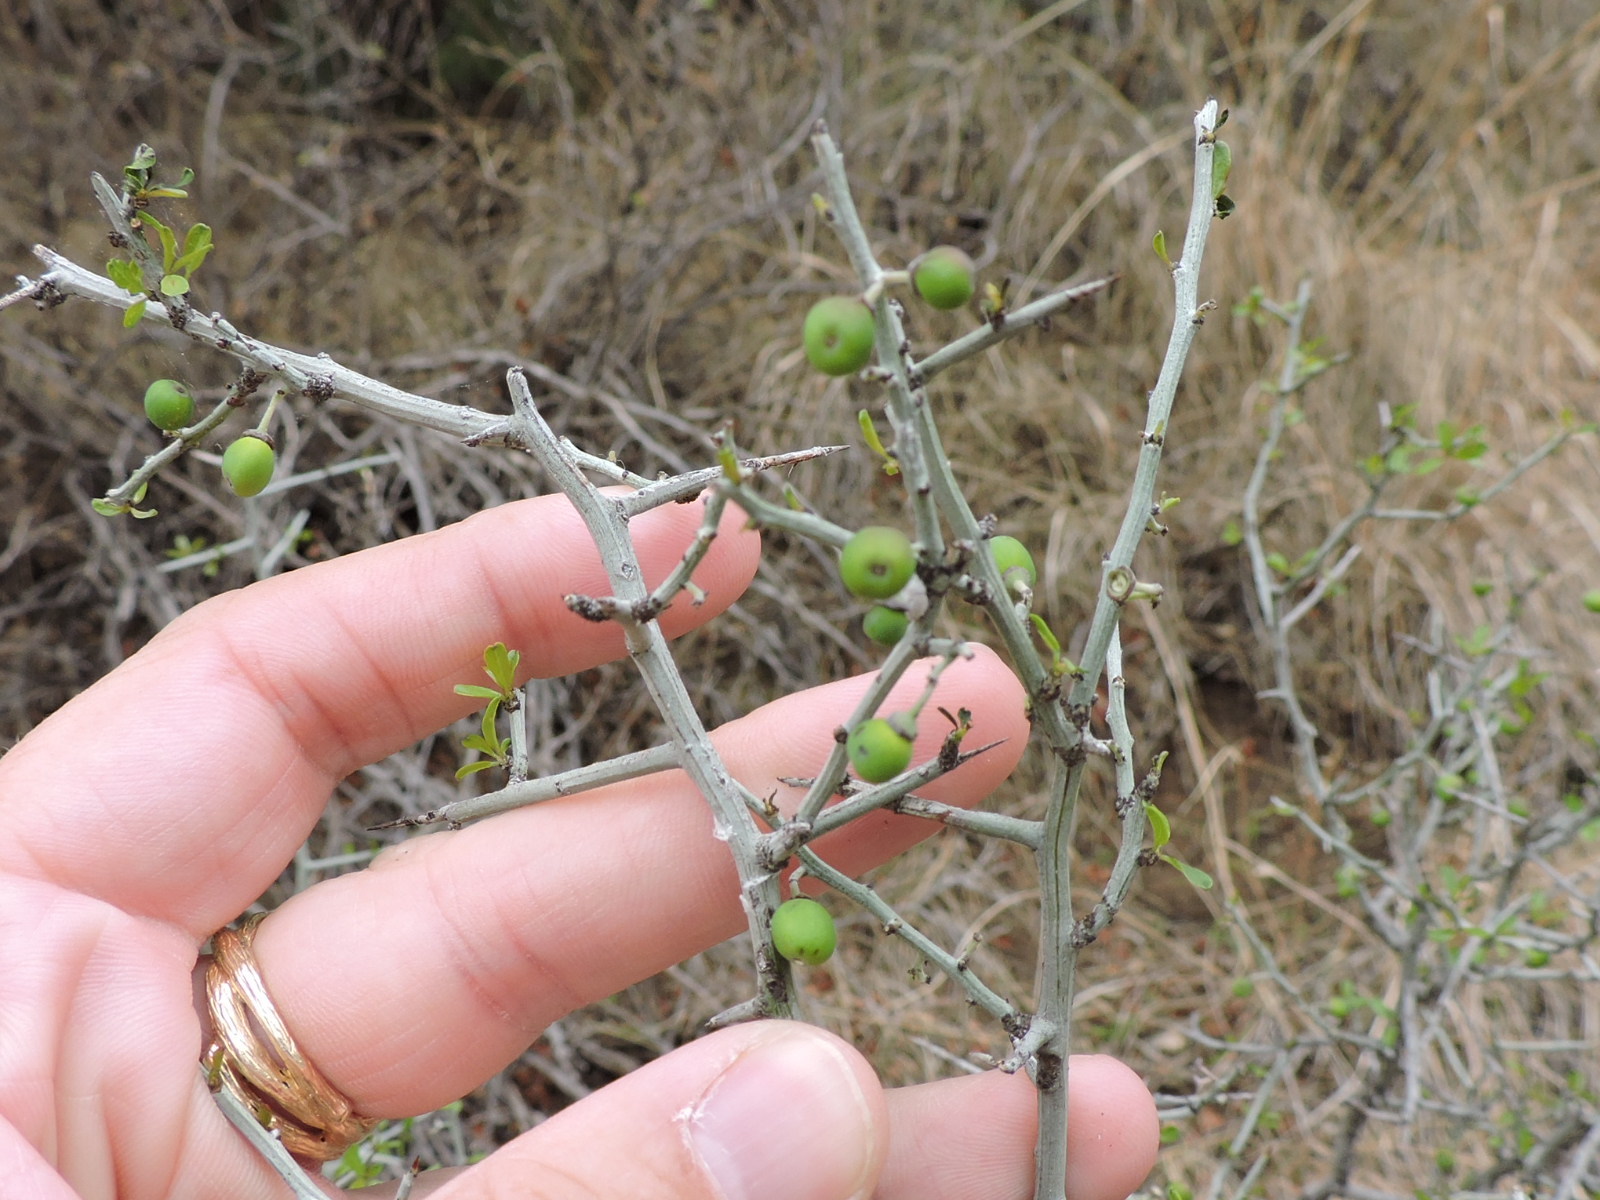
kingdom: Plantae
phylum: Tracheophyta
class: Magnoliopsida
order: Rosales
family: Rhamnaceae
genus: Sarcomphalus
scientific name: Sarcomphalus obtusifolius
